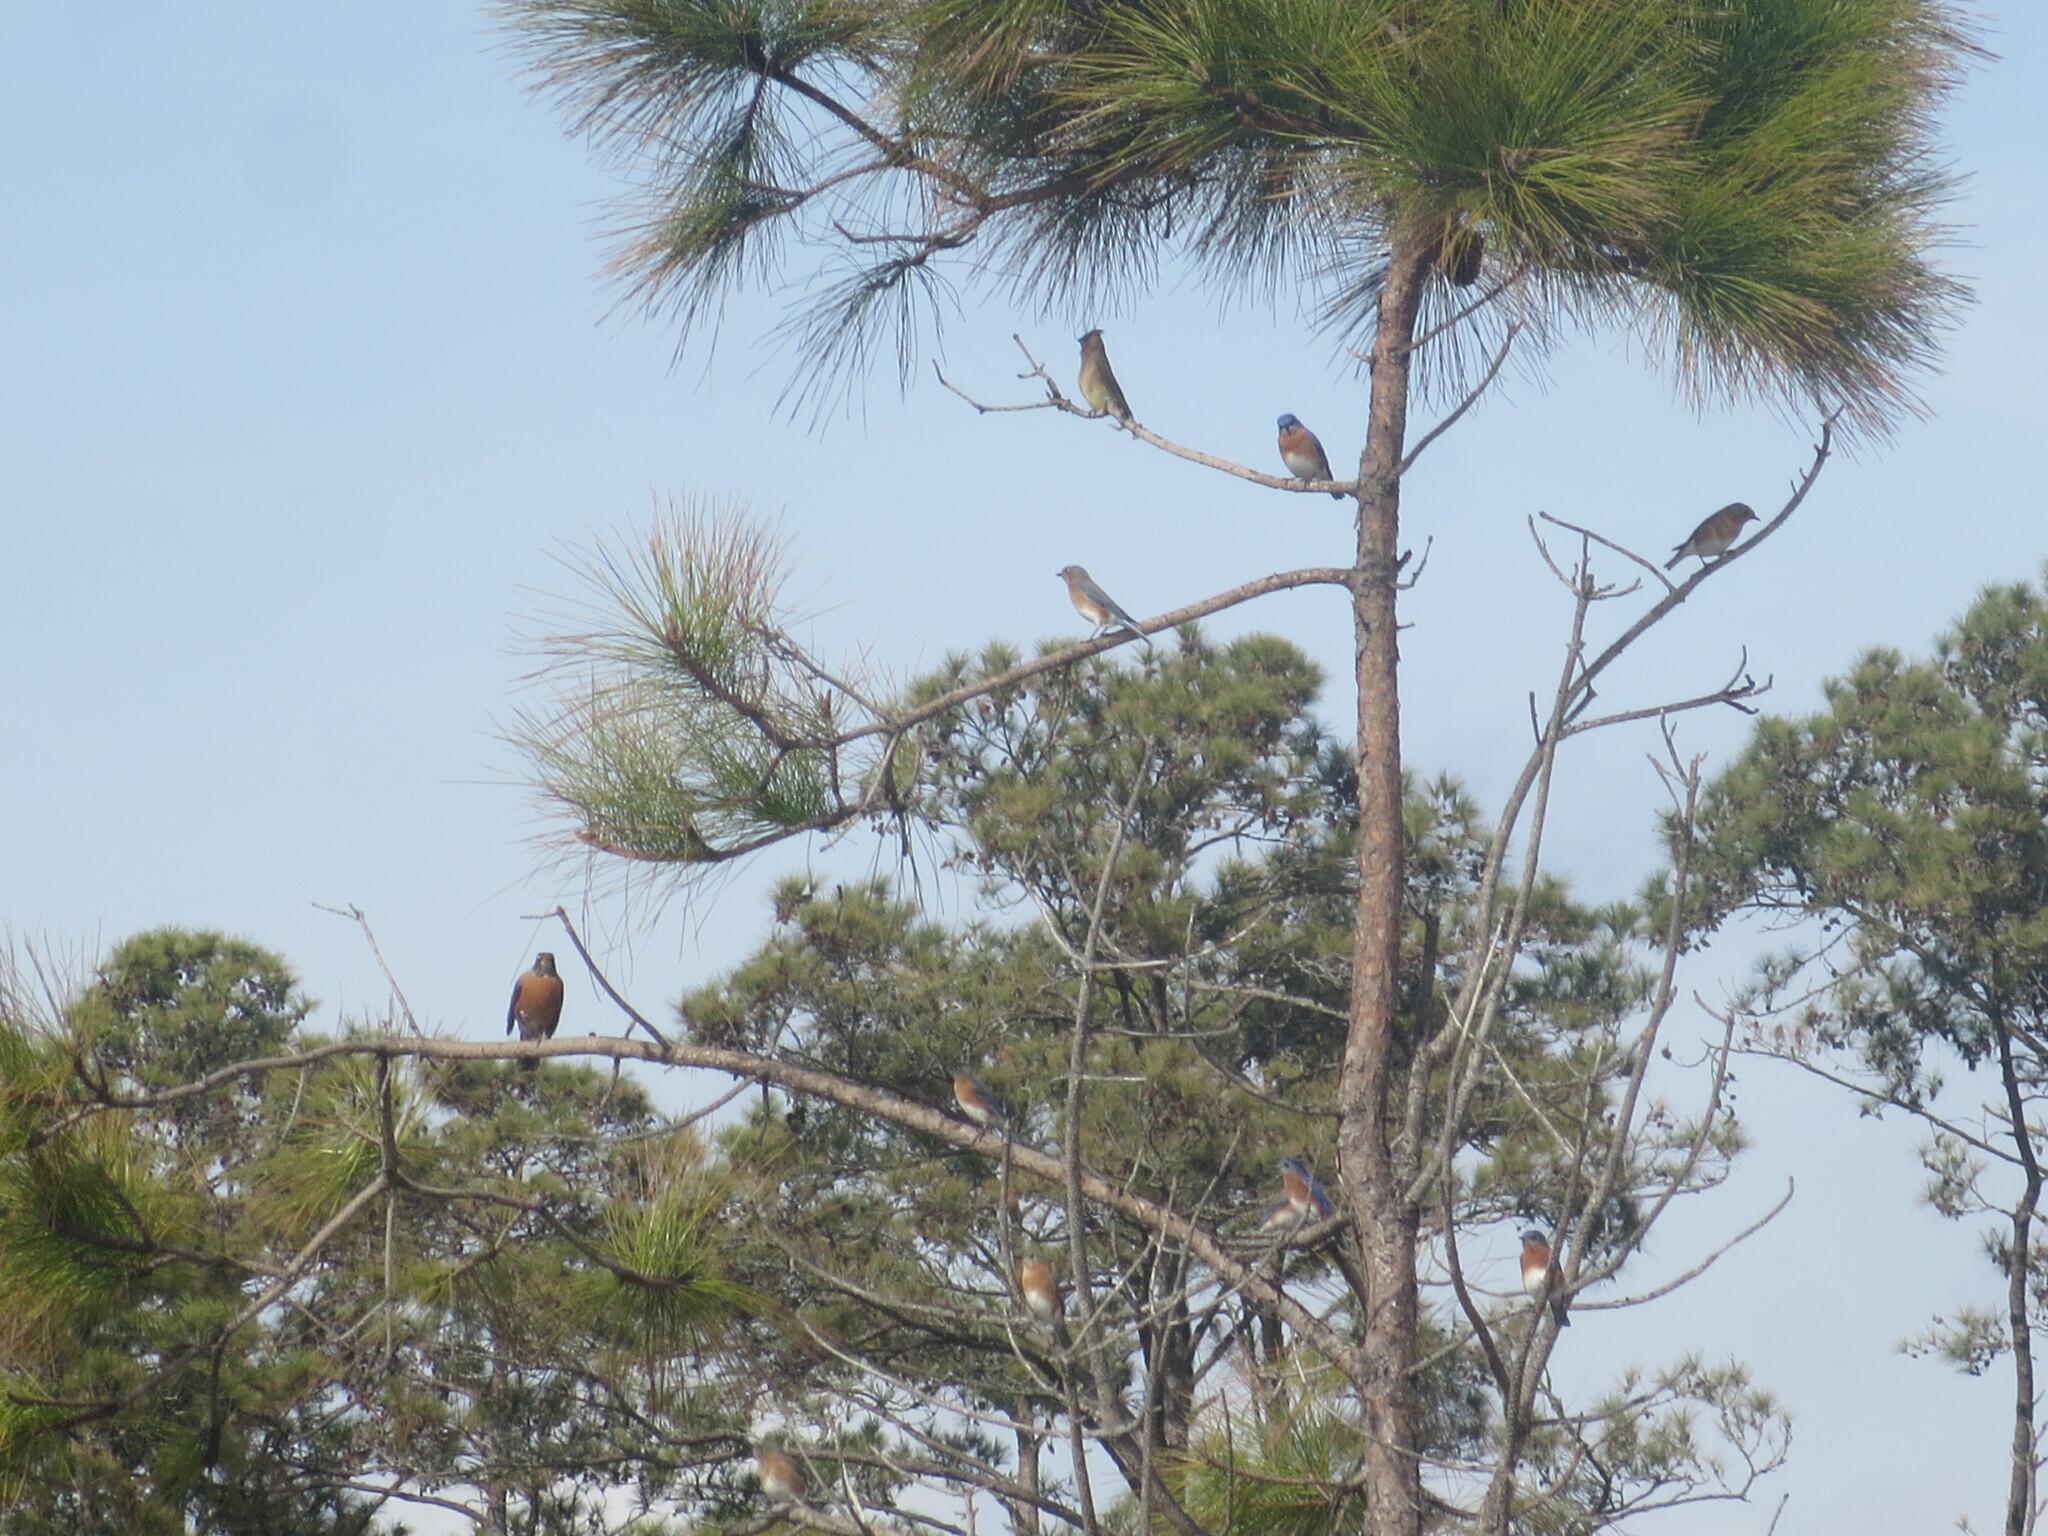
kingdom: Animalia
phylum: Chordata
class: Aves
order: Passeriformes
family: Turdidae
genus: Sialia
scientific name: Sialia sialis
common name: Eastern bluebird
